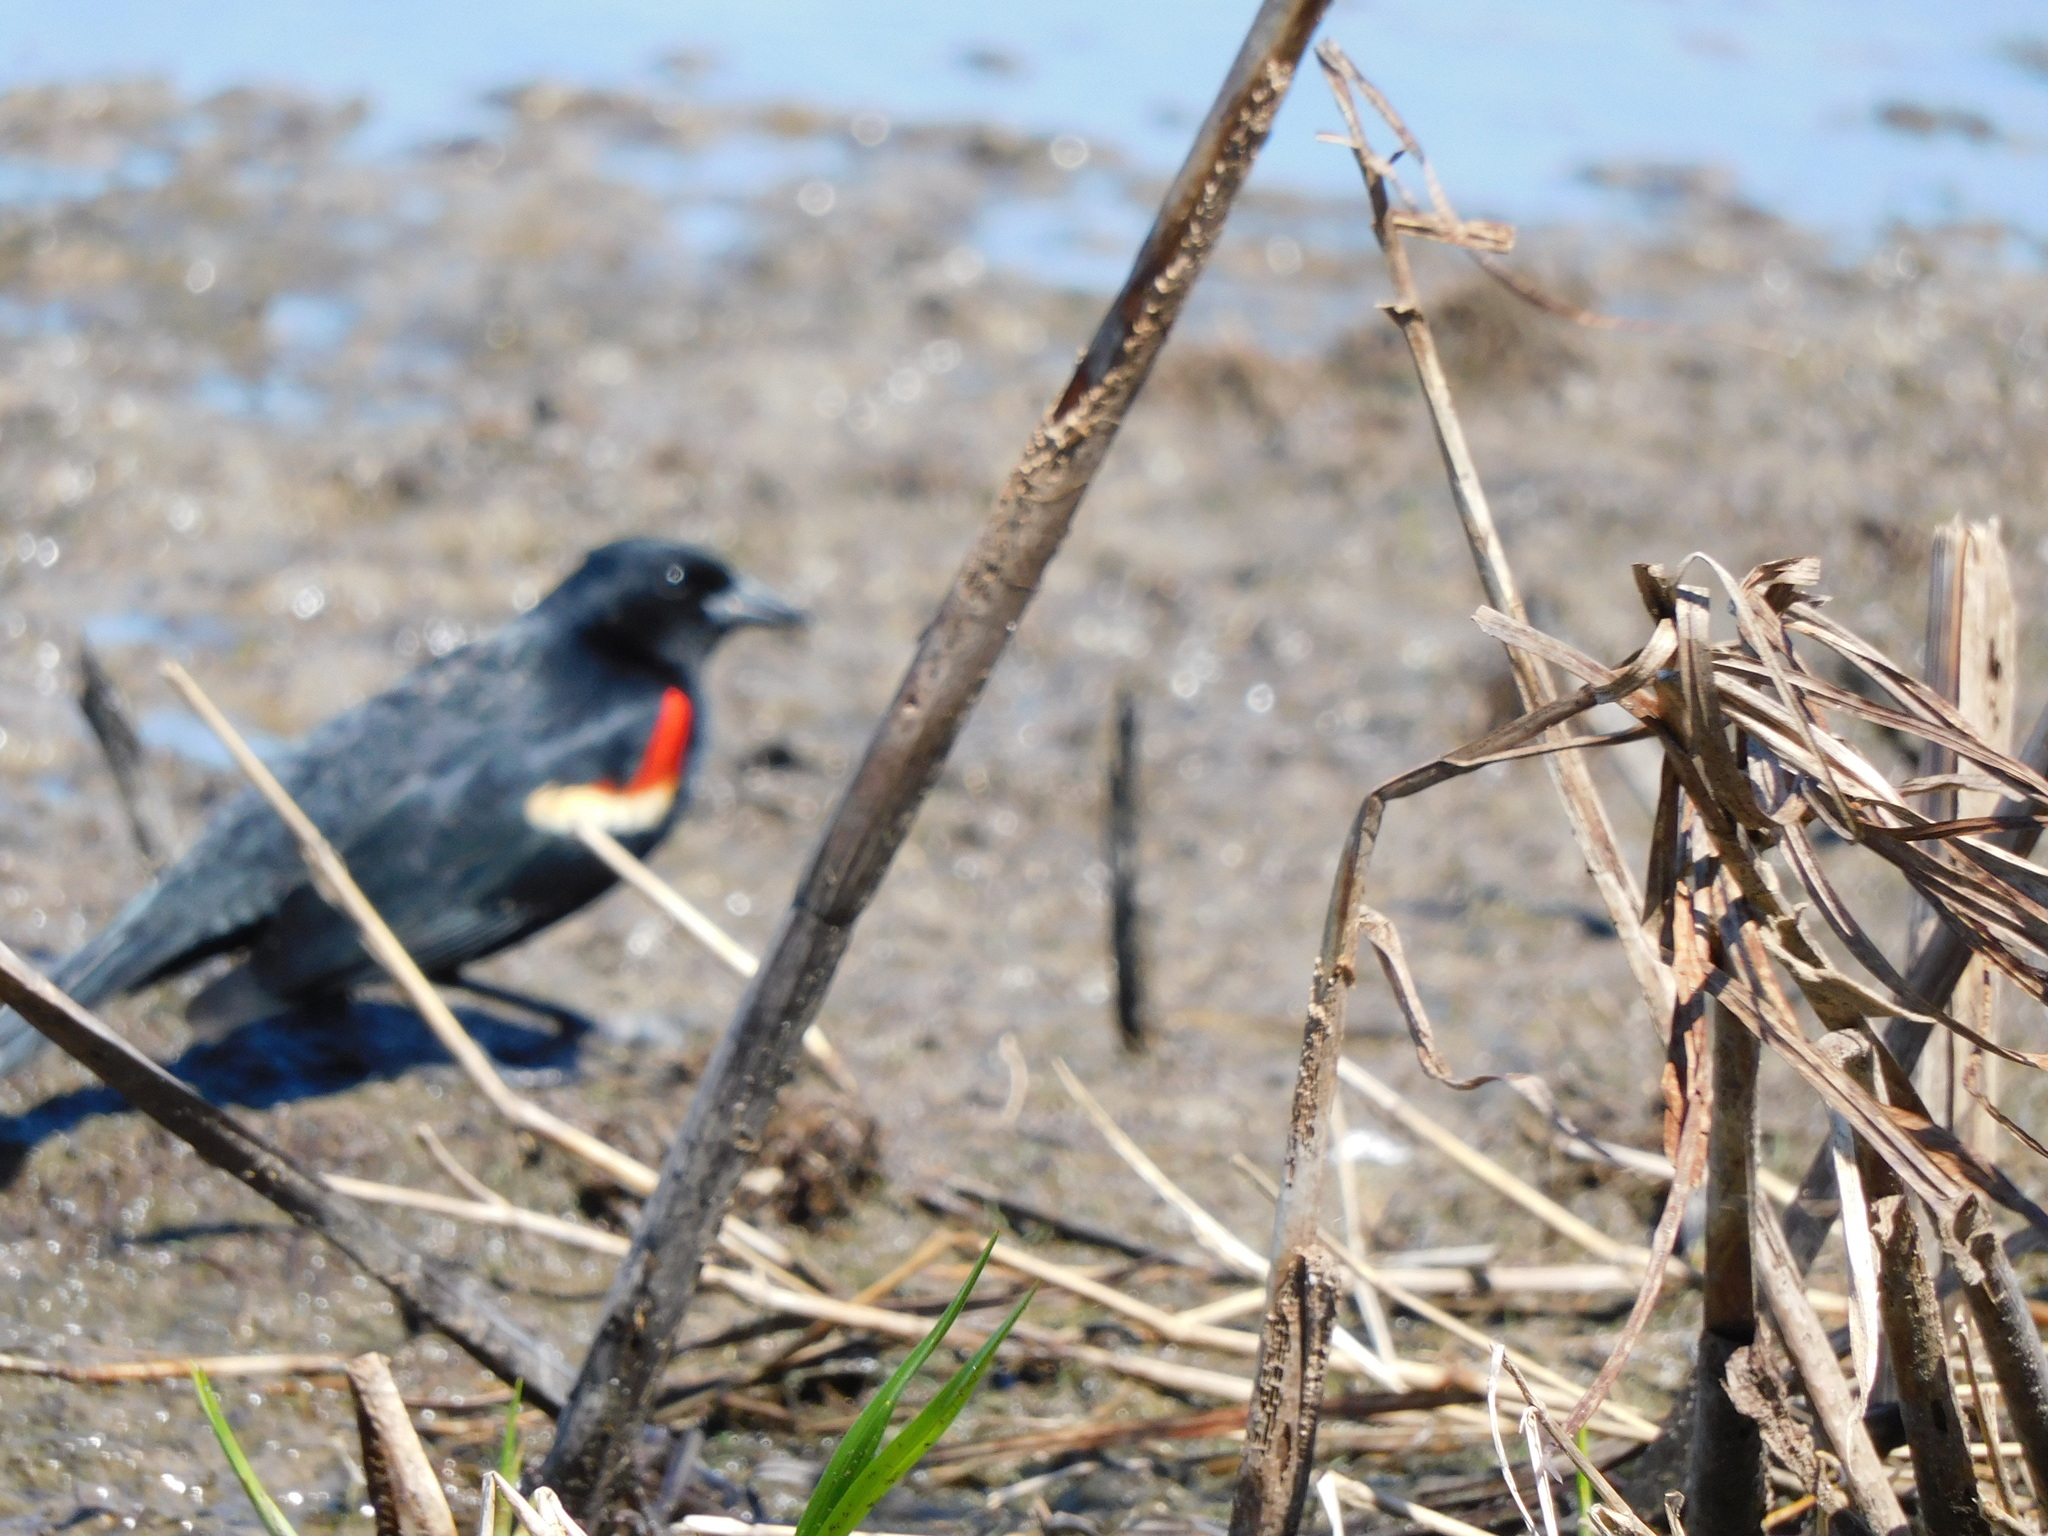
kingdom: Animalia
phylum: Chordata
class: Aves
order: Passeriformes
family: Icteridae
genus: Agelaius
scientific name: Agelaius phoeniceus
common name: Red-winged blackbird
